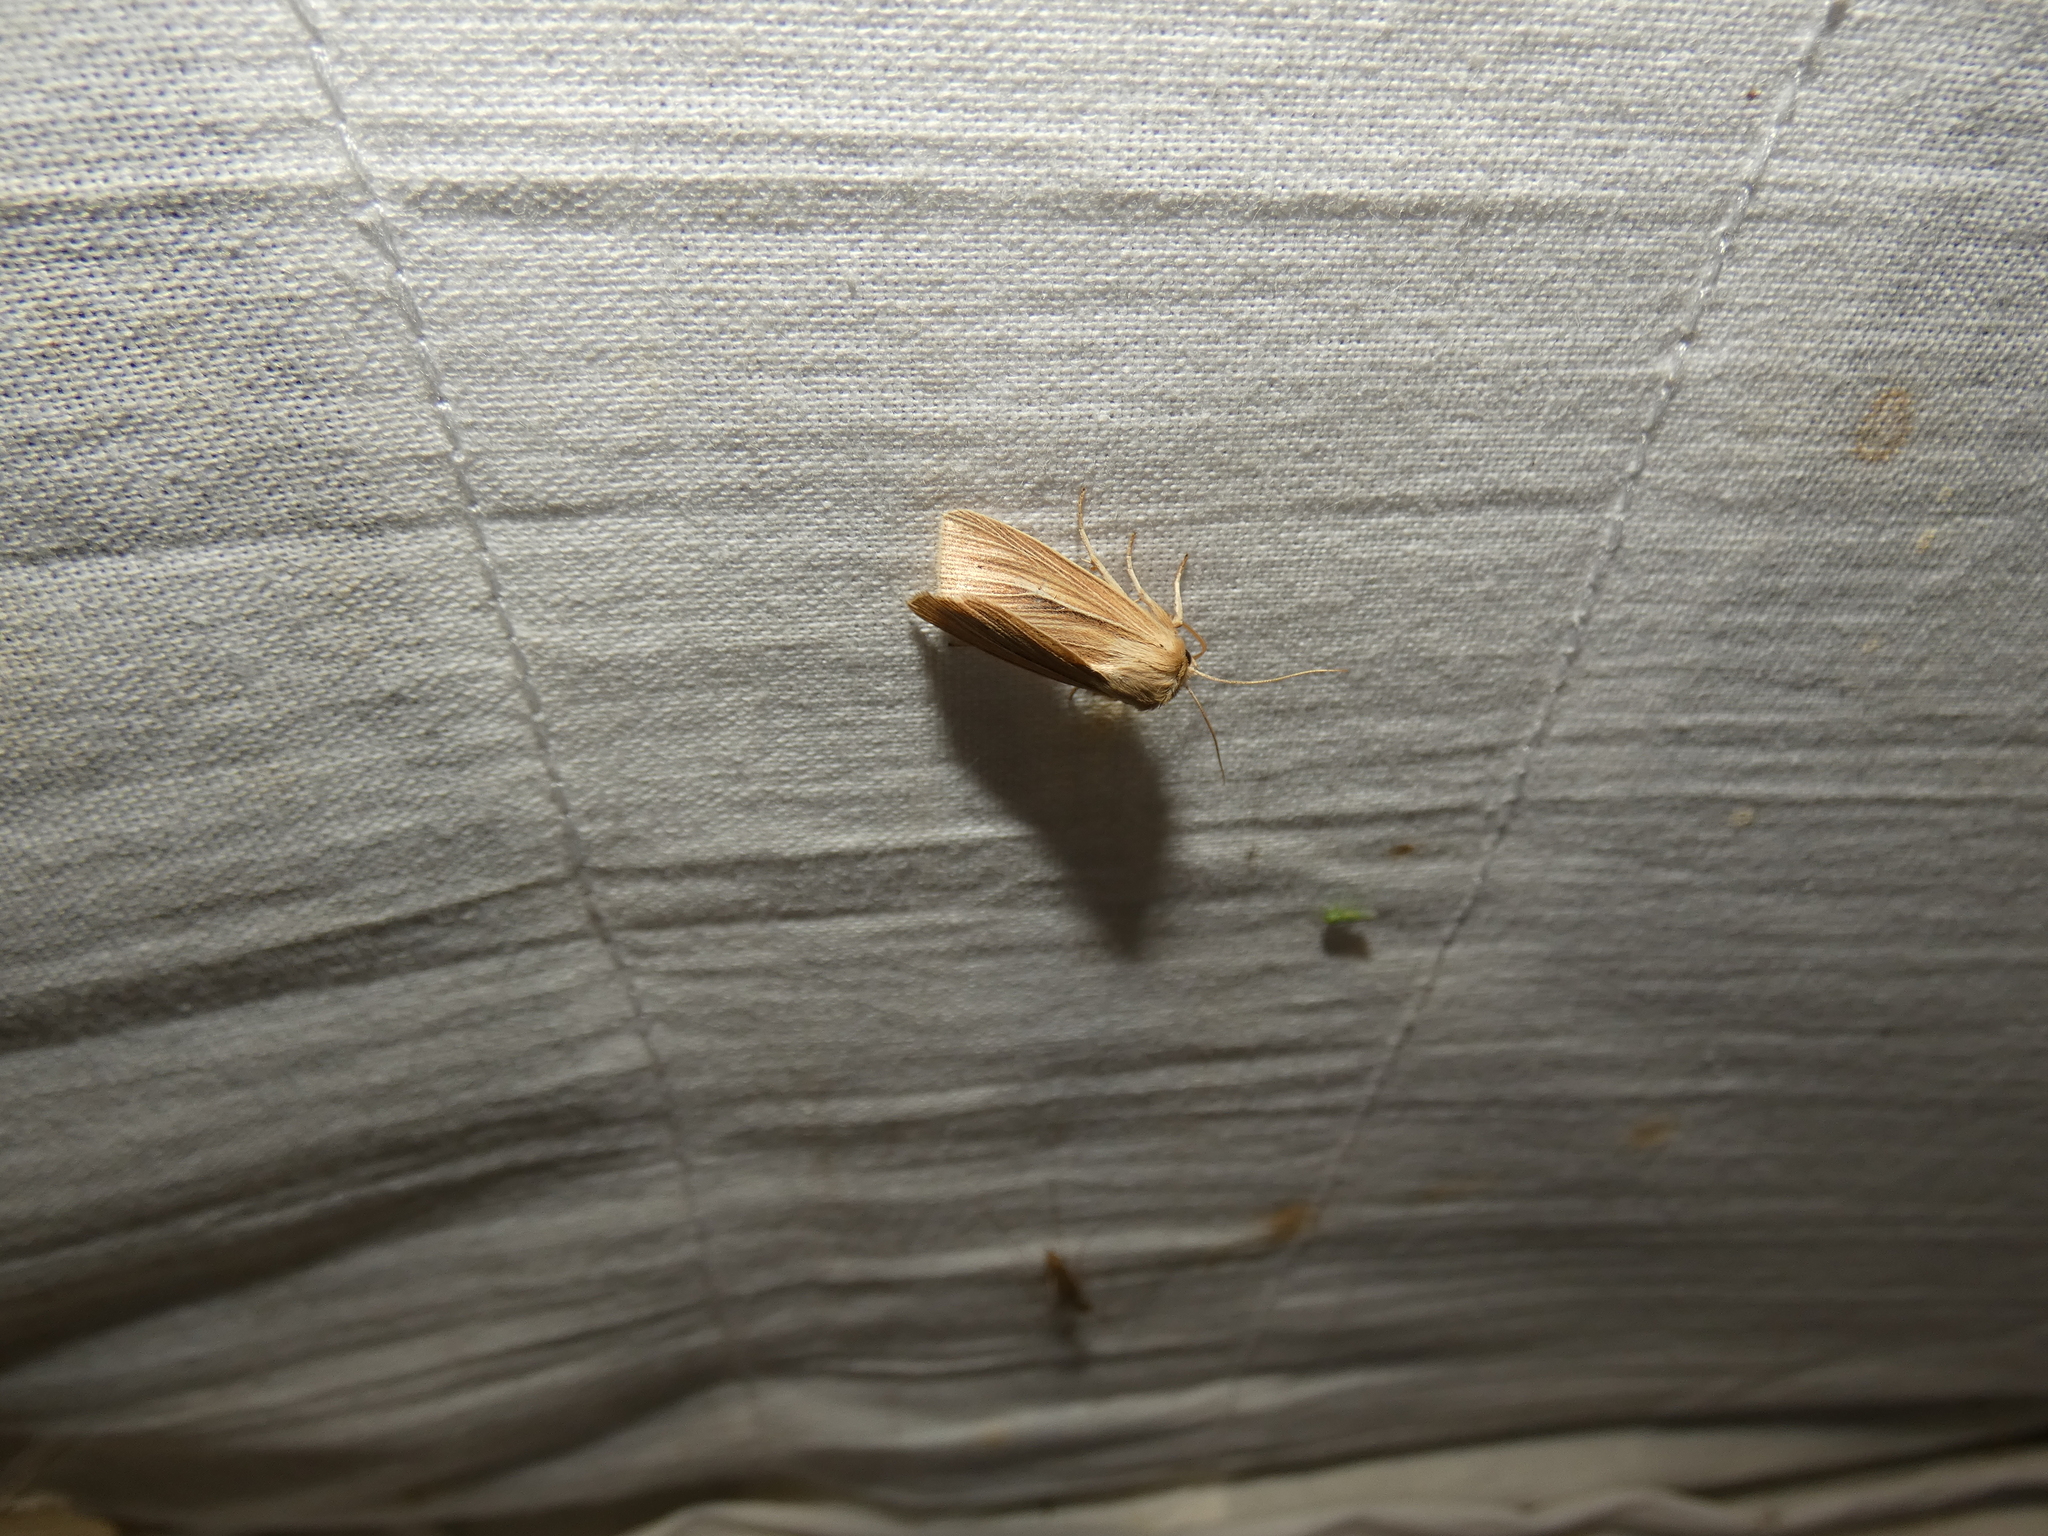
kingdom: Animalia
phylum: Arthropoda
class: Insecta
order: Lepidoptera
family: Noctuidae
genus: Mythimna
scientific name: Mythimna impura
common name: Smoky wainscot
